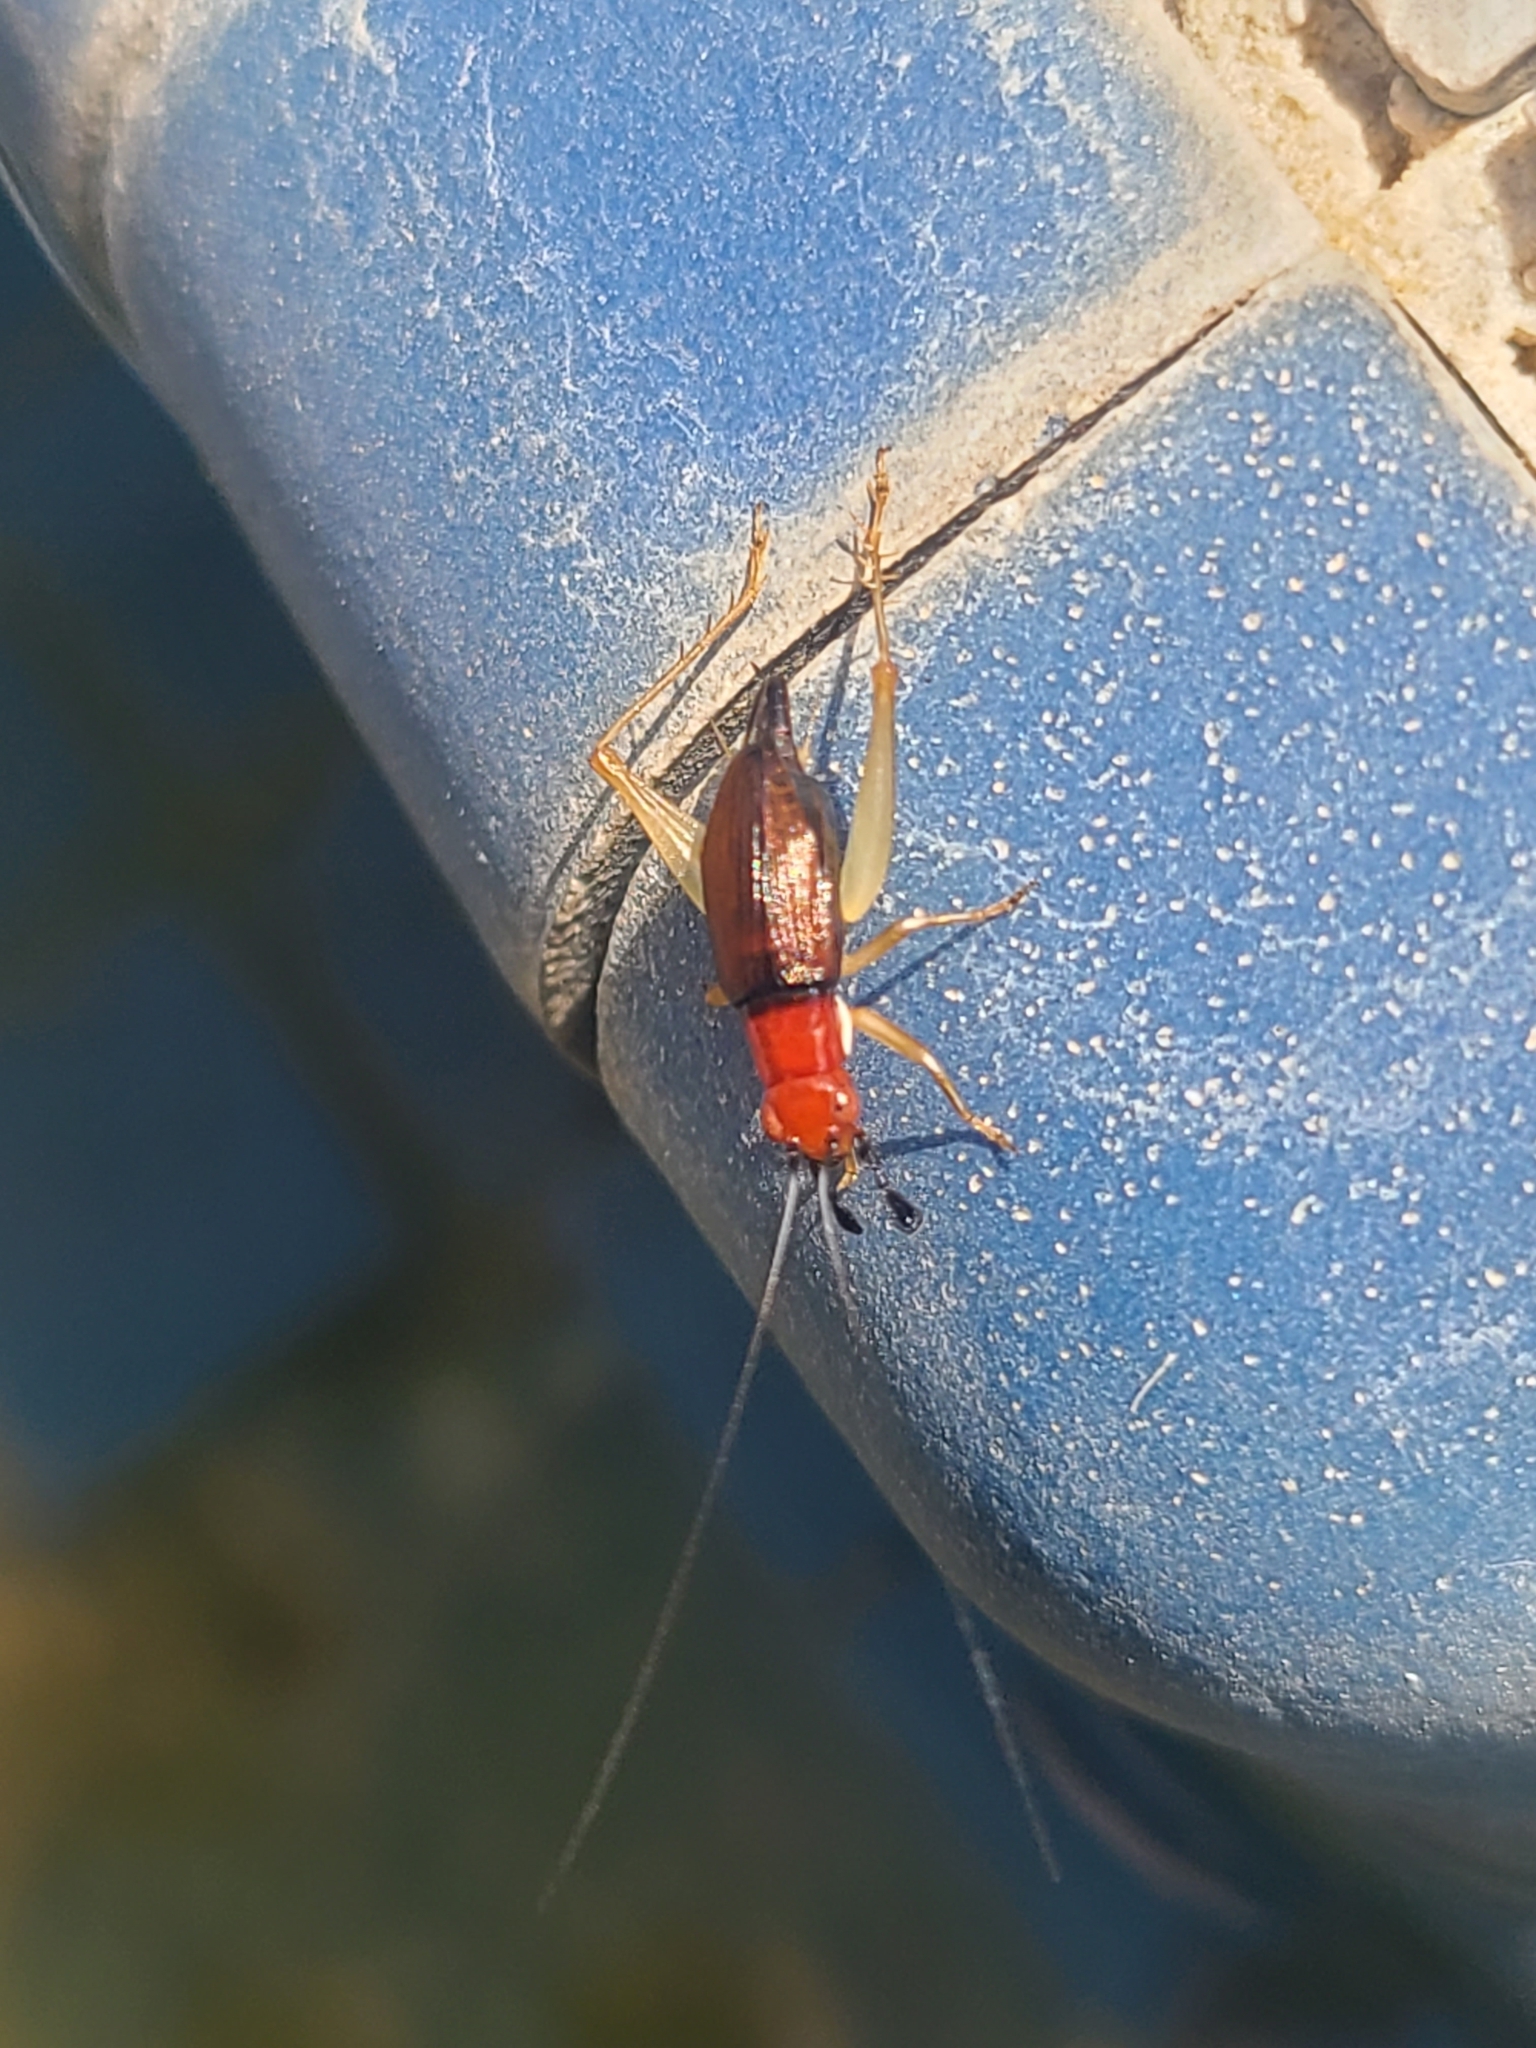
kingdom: Animalia
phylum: Arthropoda
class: Insecta
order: Orthoptera
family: Trigonidiidae
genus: Phyllopalpus
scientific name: Phyllopalpus pulchellus
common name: Handsome trig
